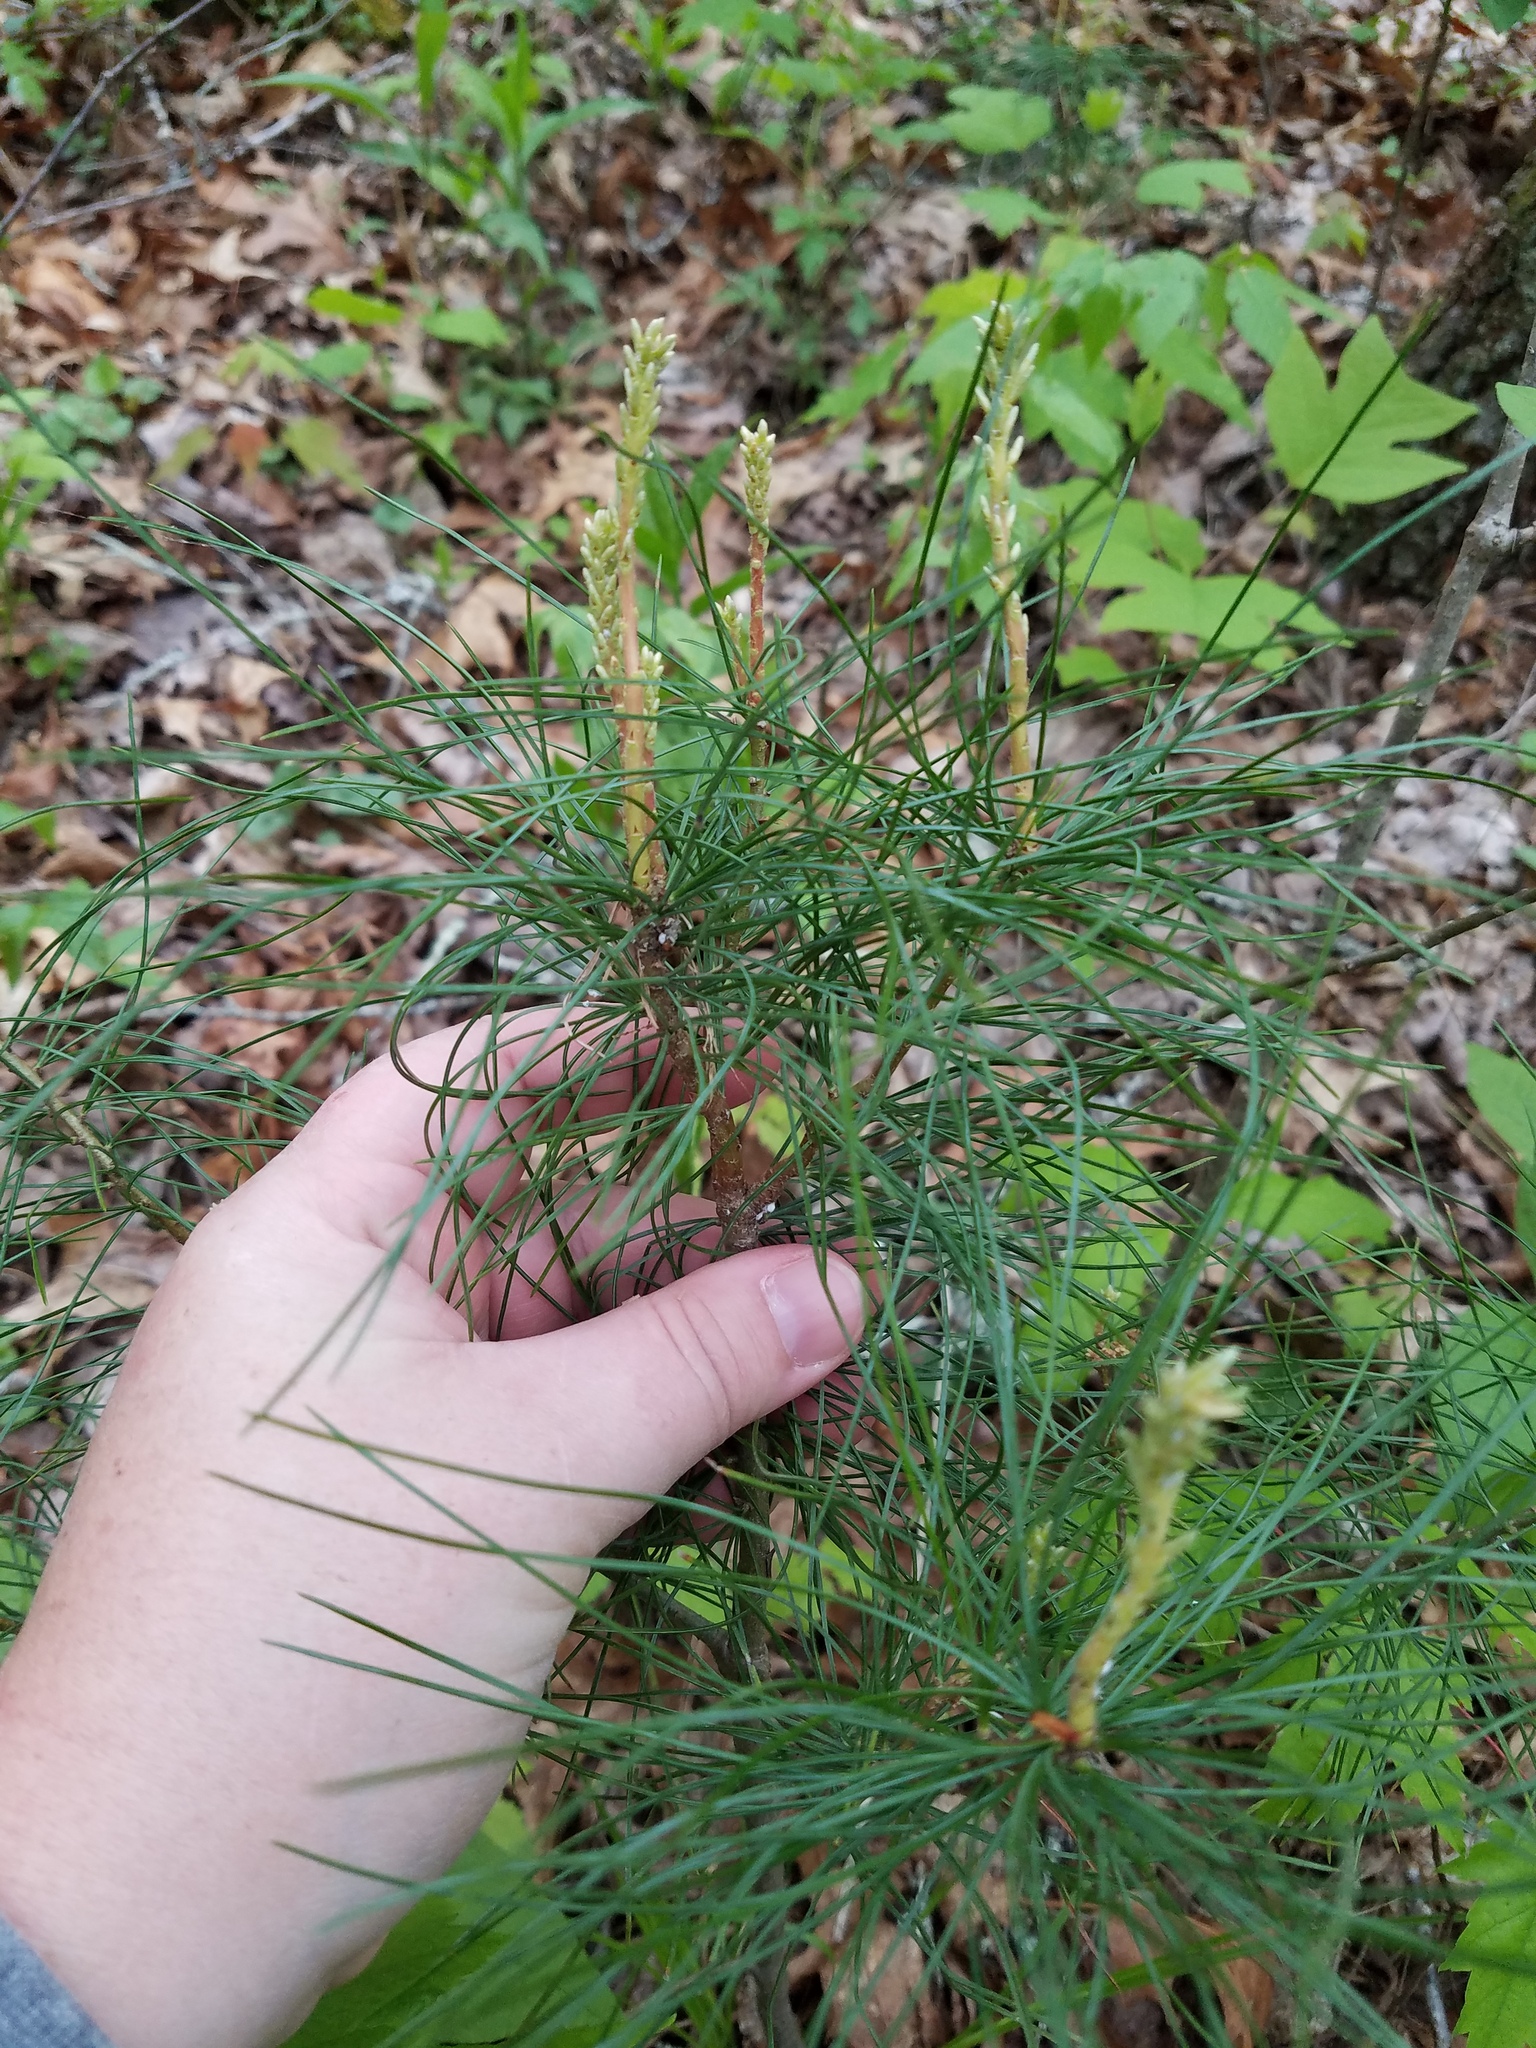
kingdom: Plantae
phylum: Tracheophyta
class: Pinopsida
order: Pinales
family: Pinaceae
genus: Pinus
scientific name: Pinus strobus
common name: Weymouth pine
